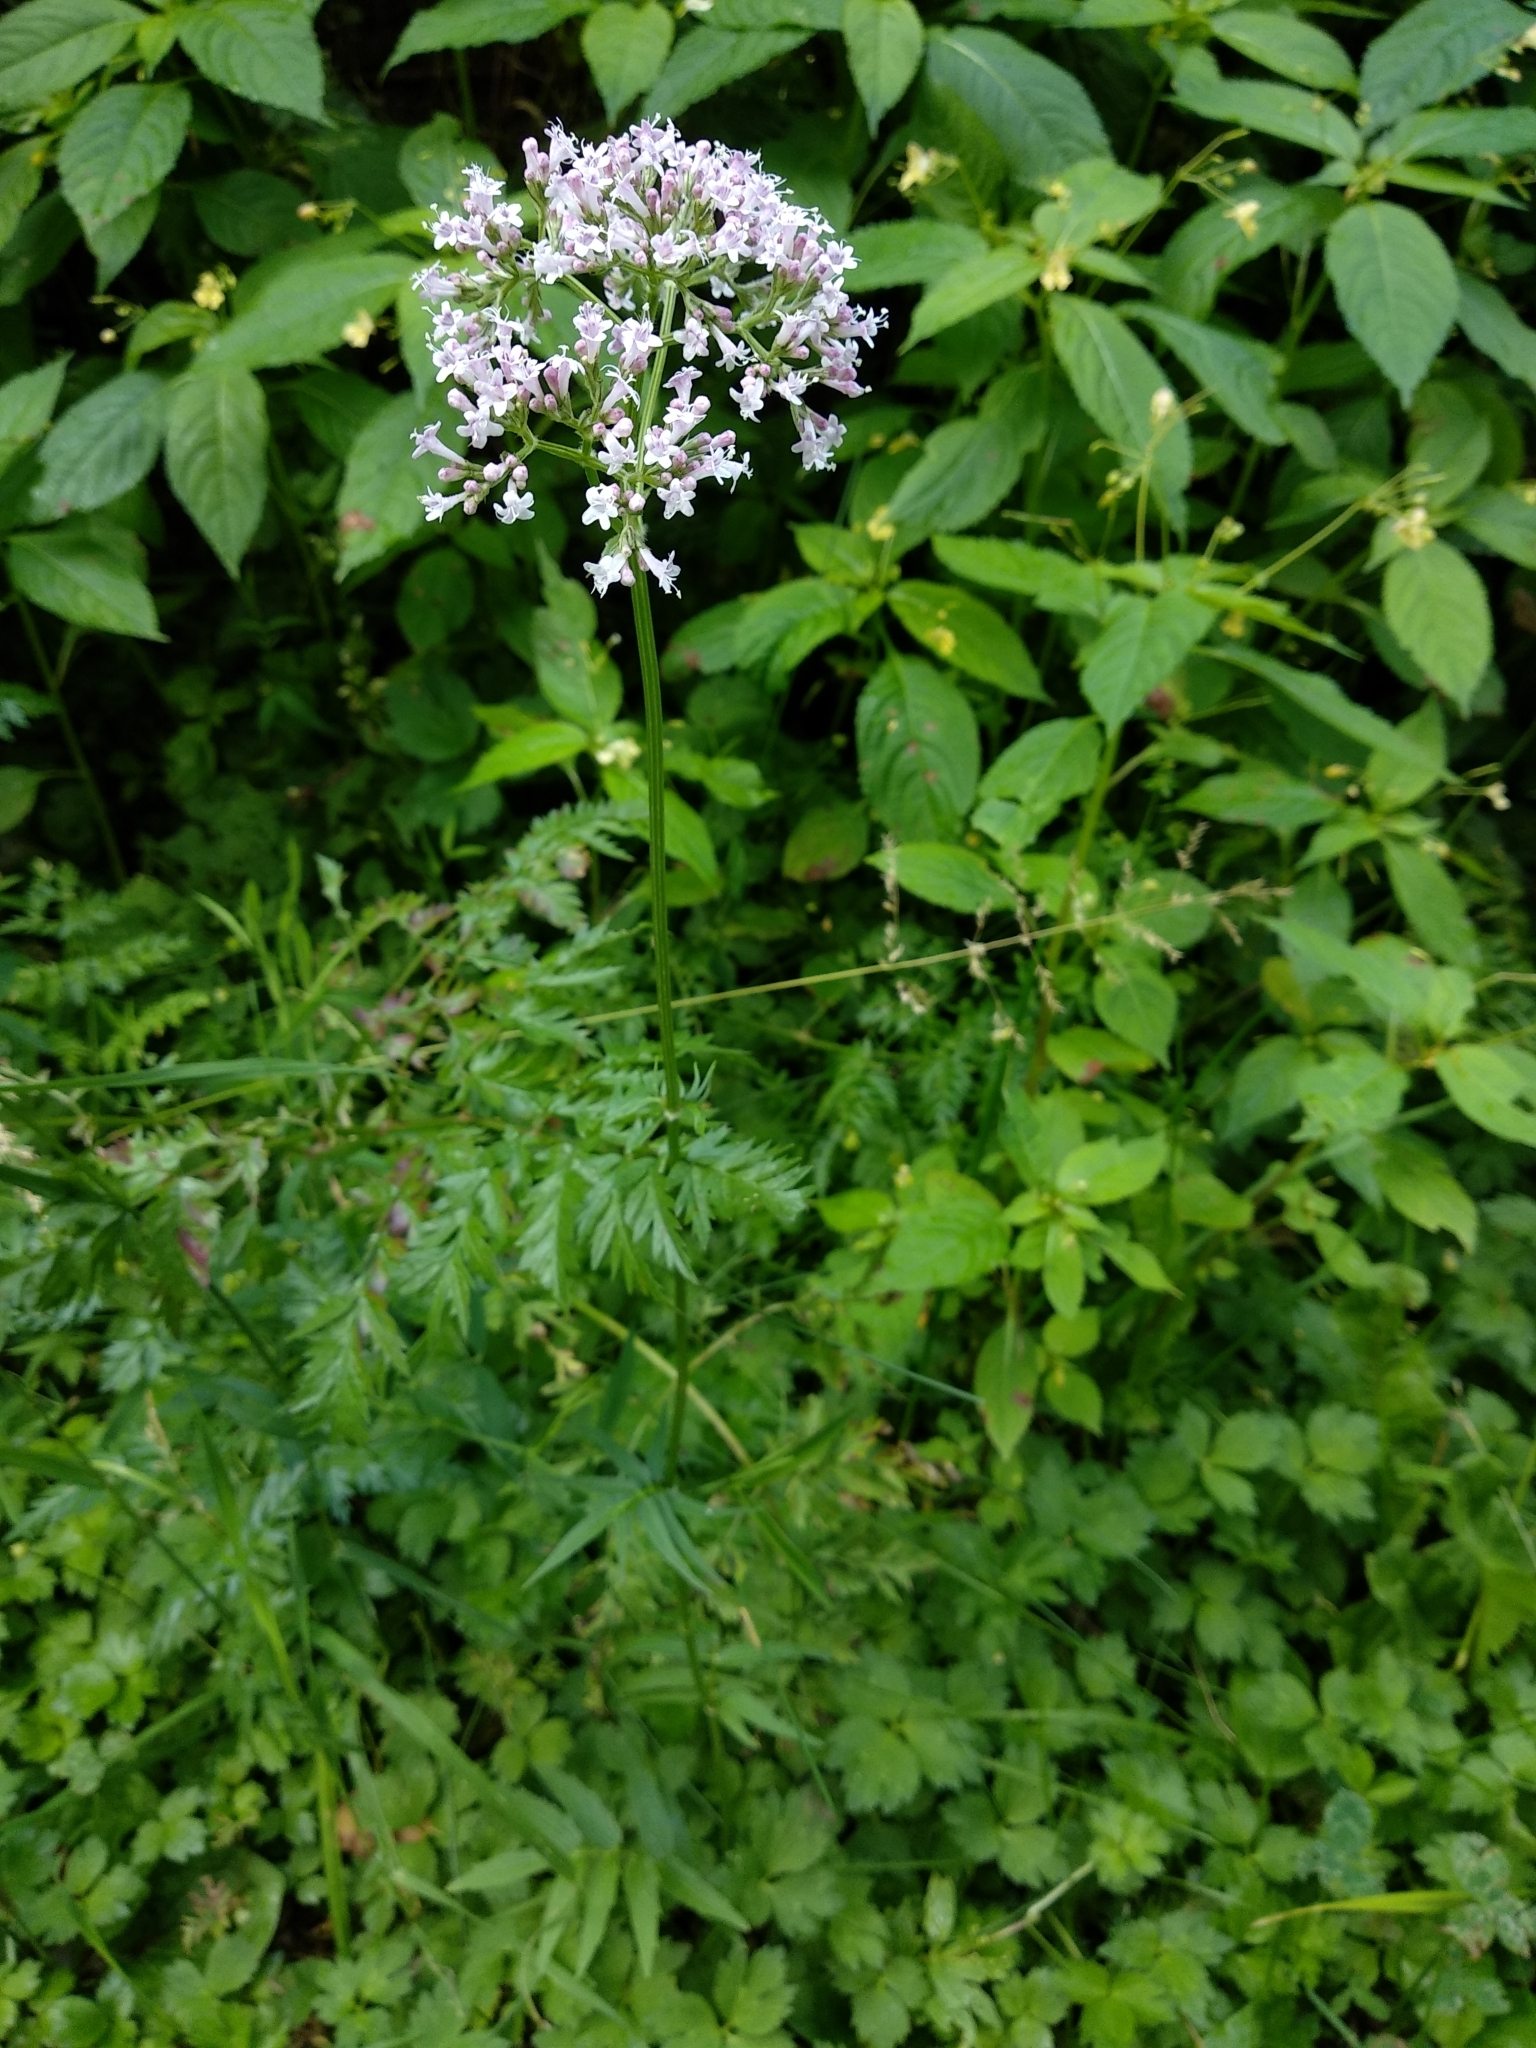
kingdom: Plantae
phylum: Tracheophyta
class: Magnoliopsida
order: Dipsacales
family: Caprifoliaceae
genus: Valeriana
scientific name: Valeriana
